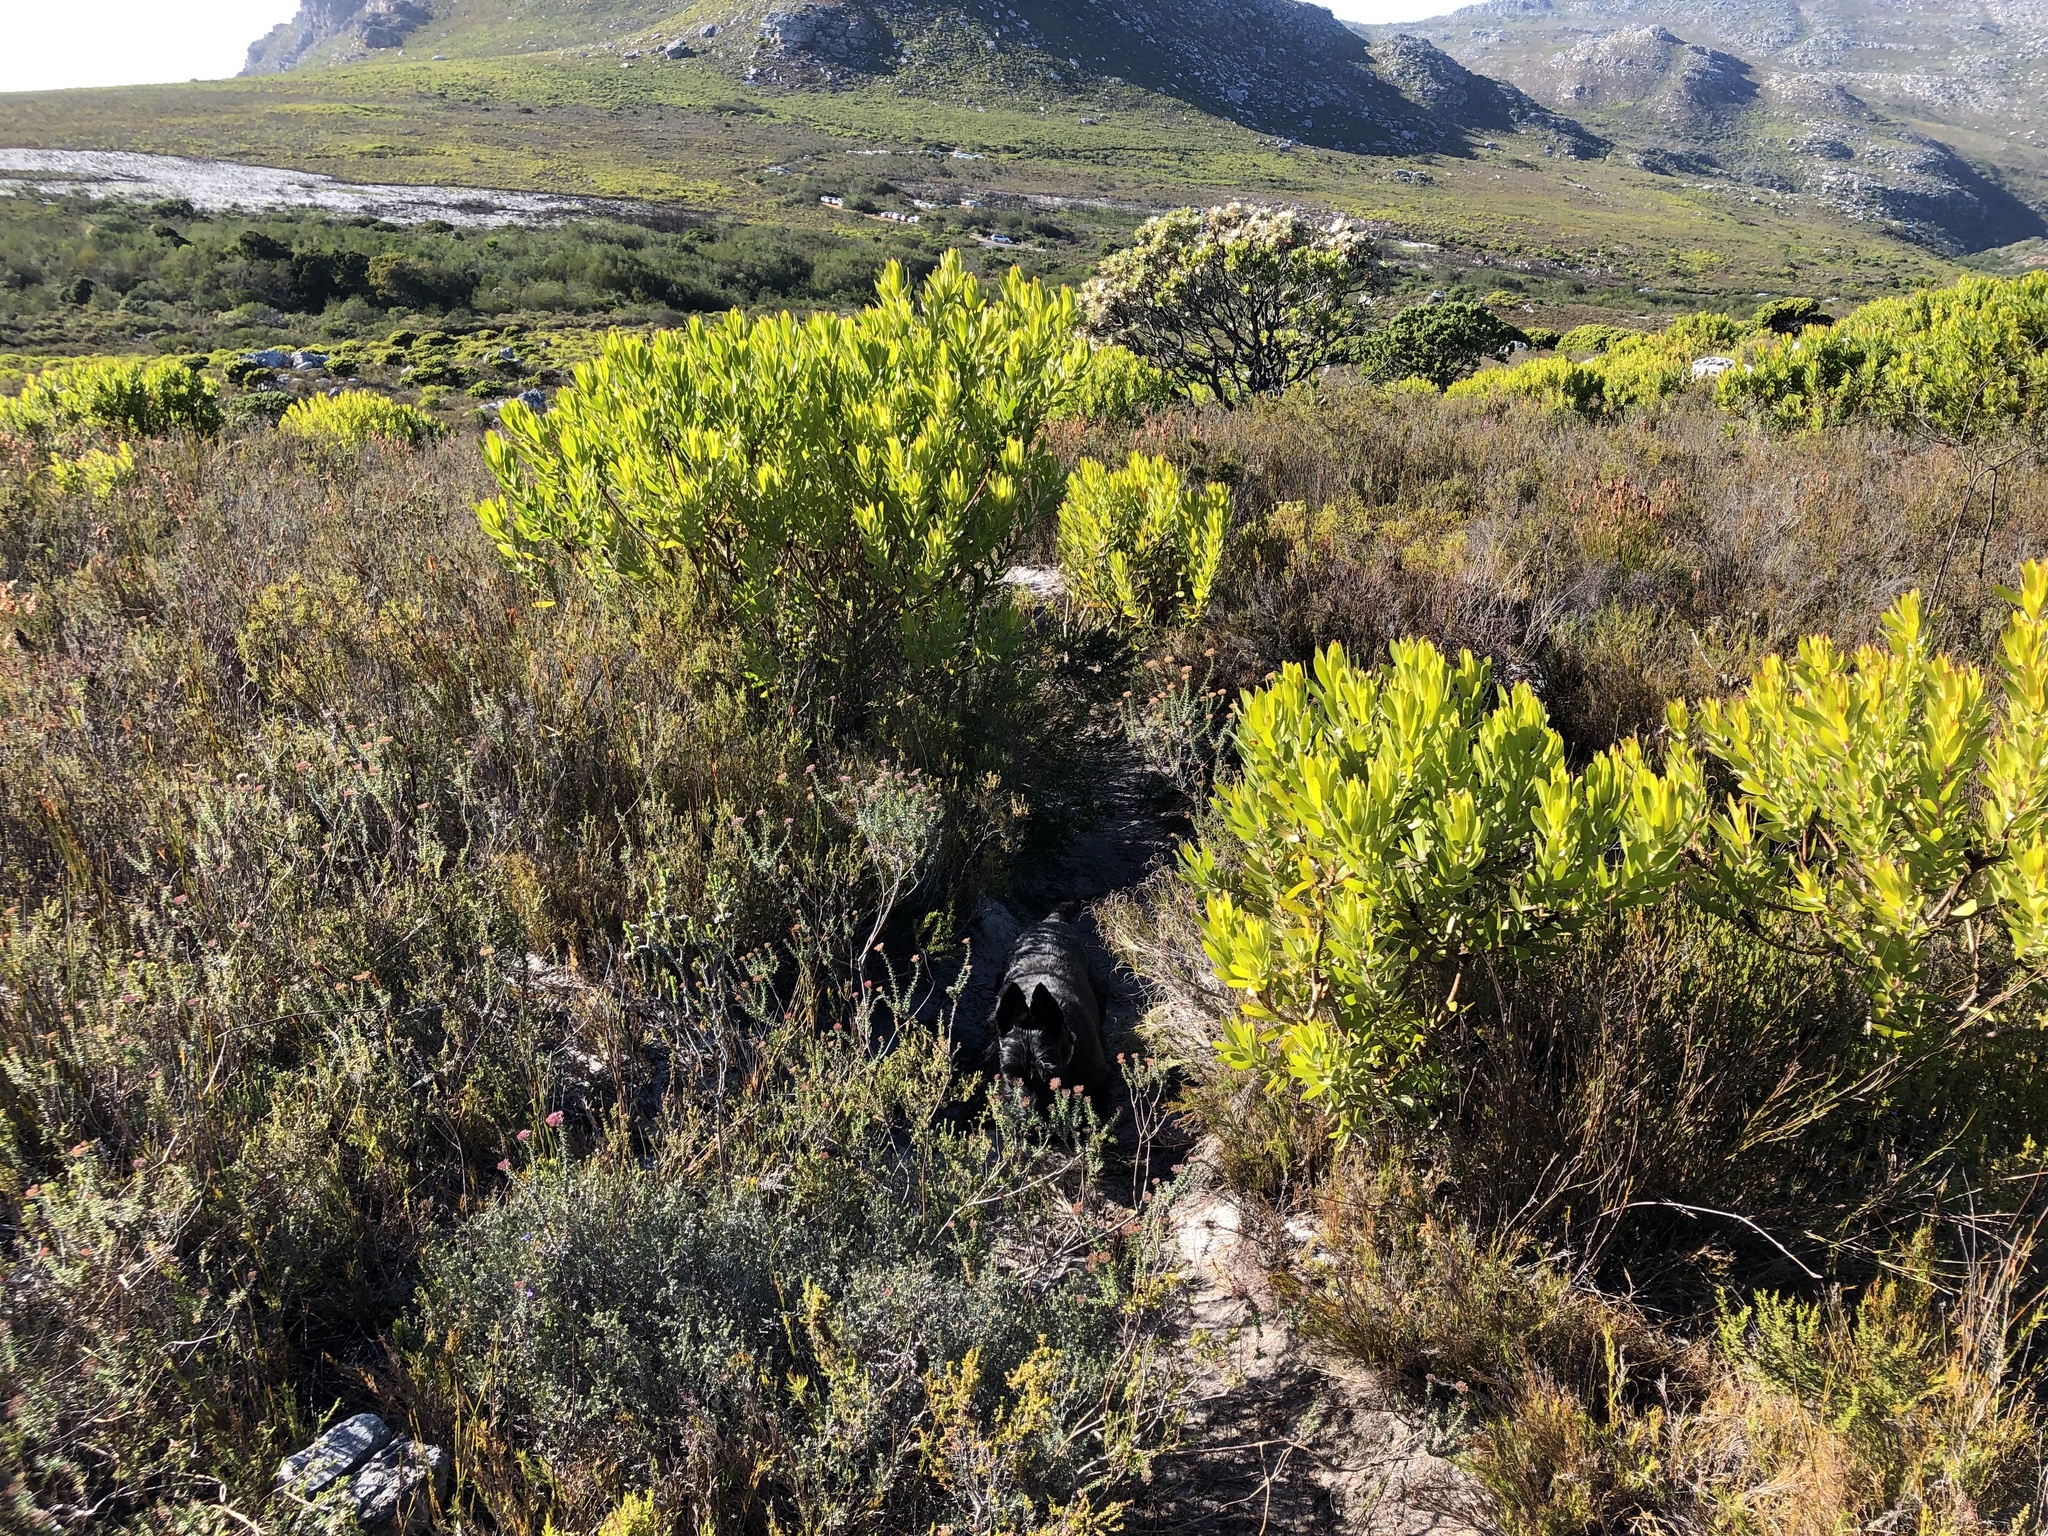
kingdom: Plantae
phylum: Tracheophyta
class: Magnoliopsida
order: Proteales
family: Proteaceae
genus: Leucadendron
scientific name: Leucadendron laureolum
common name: Golden sunshinebush
